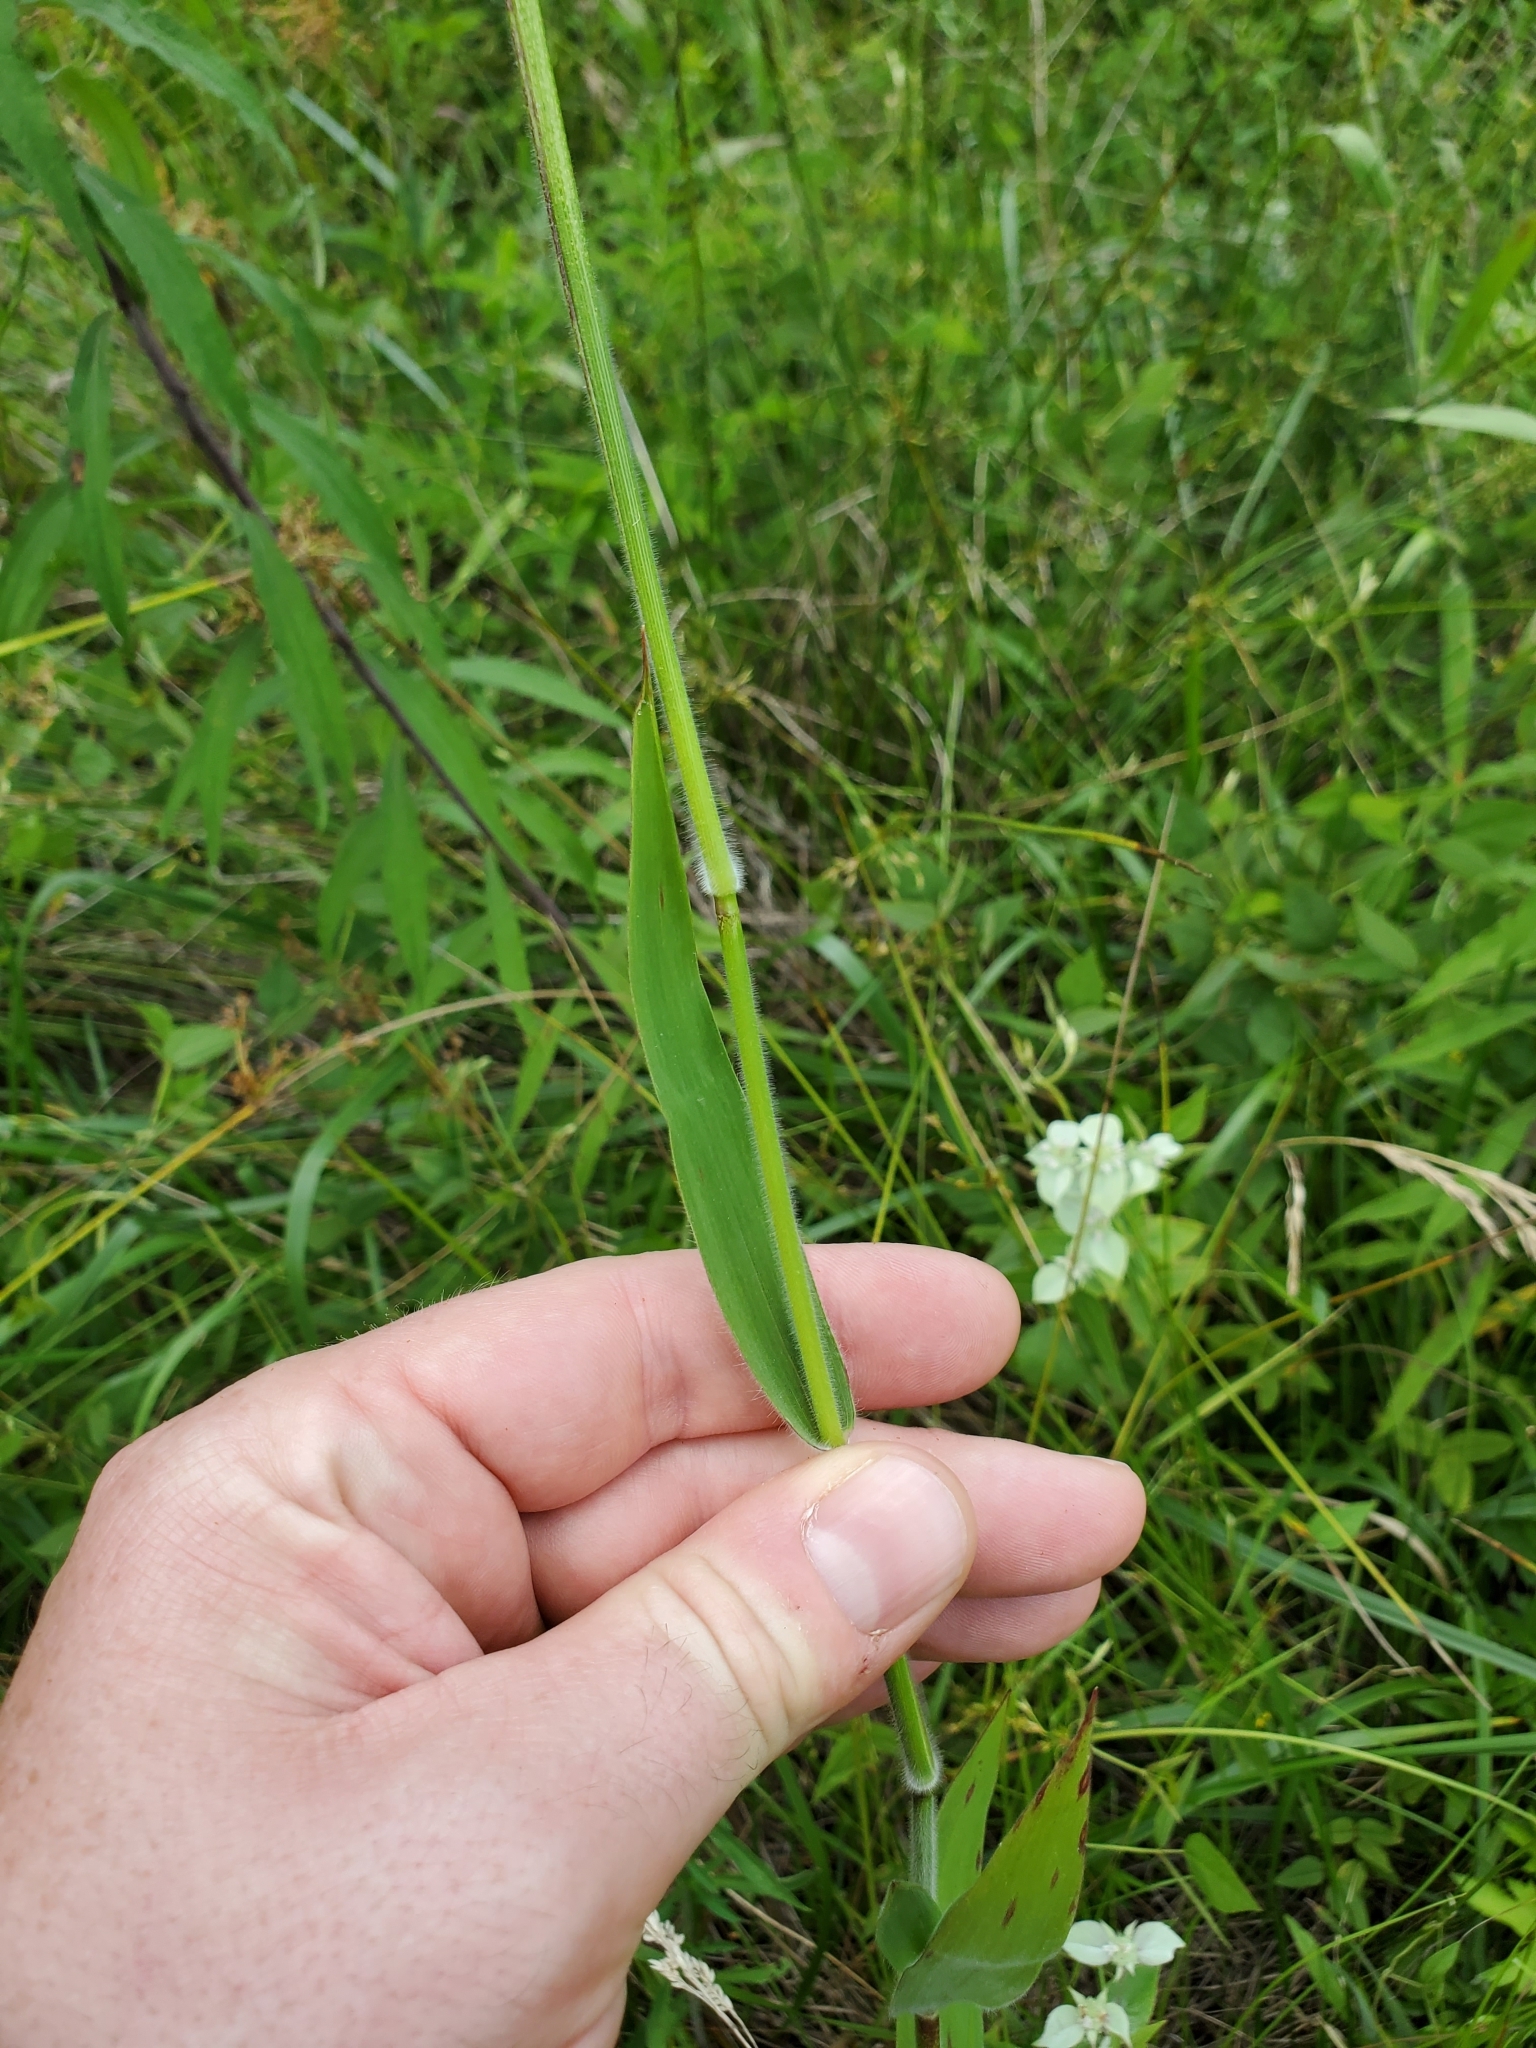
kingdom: Plantae
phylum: Tracheophyta
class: Liliopsida
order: Poales
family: Poaceae
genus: Dichanthelium
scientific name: Dichanthelium scoparium
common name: Velvety panic grass
